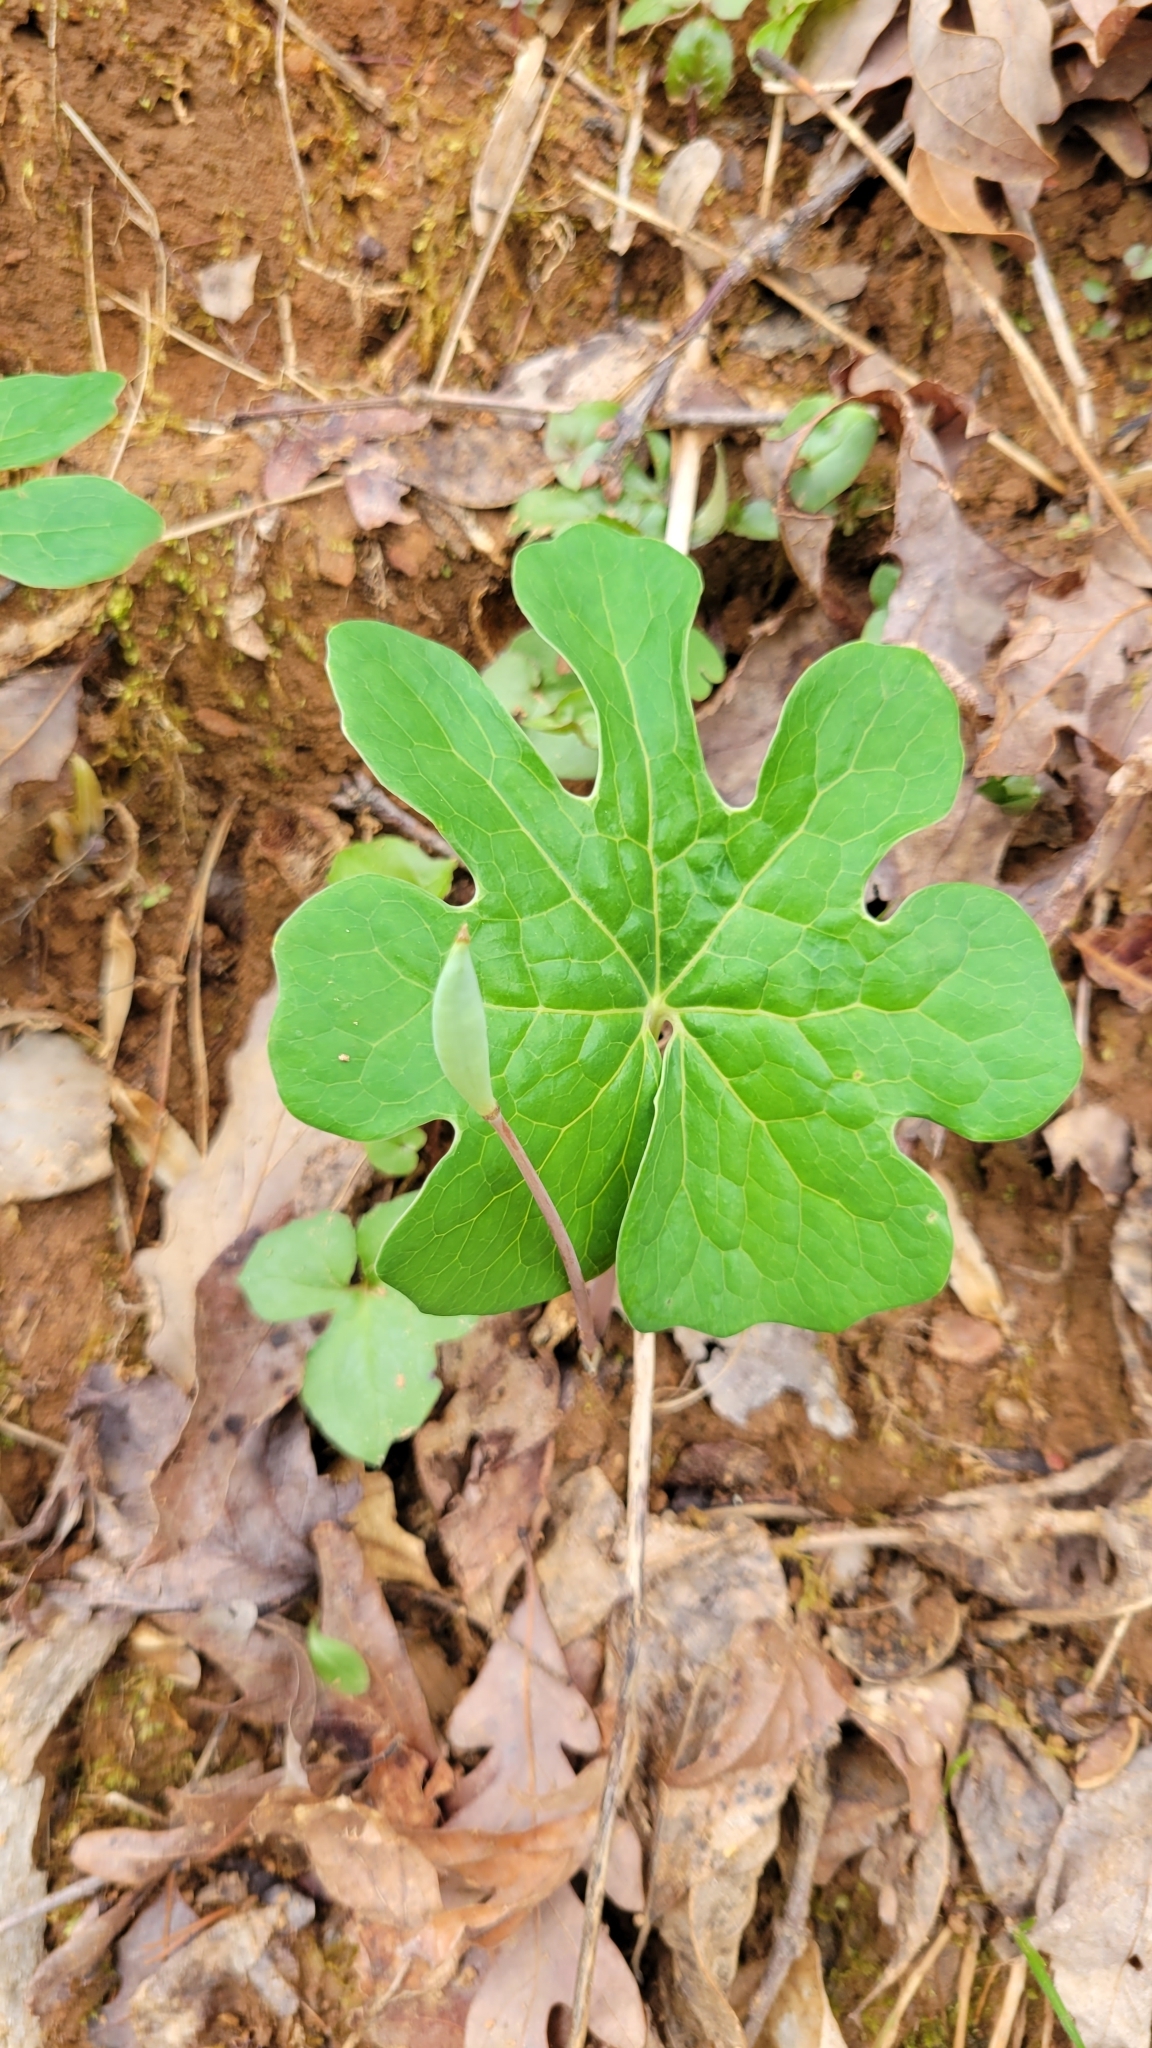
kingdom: Plantae
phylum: Tracheophyta
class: Magnoliopsida
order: Ranunculales
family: Papaveraceae
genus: Sanguinaria
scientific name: Sanguinaria canadensis
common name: Bloodroot
